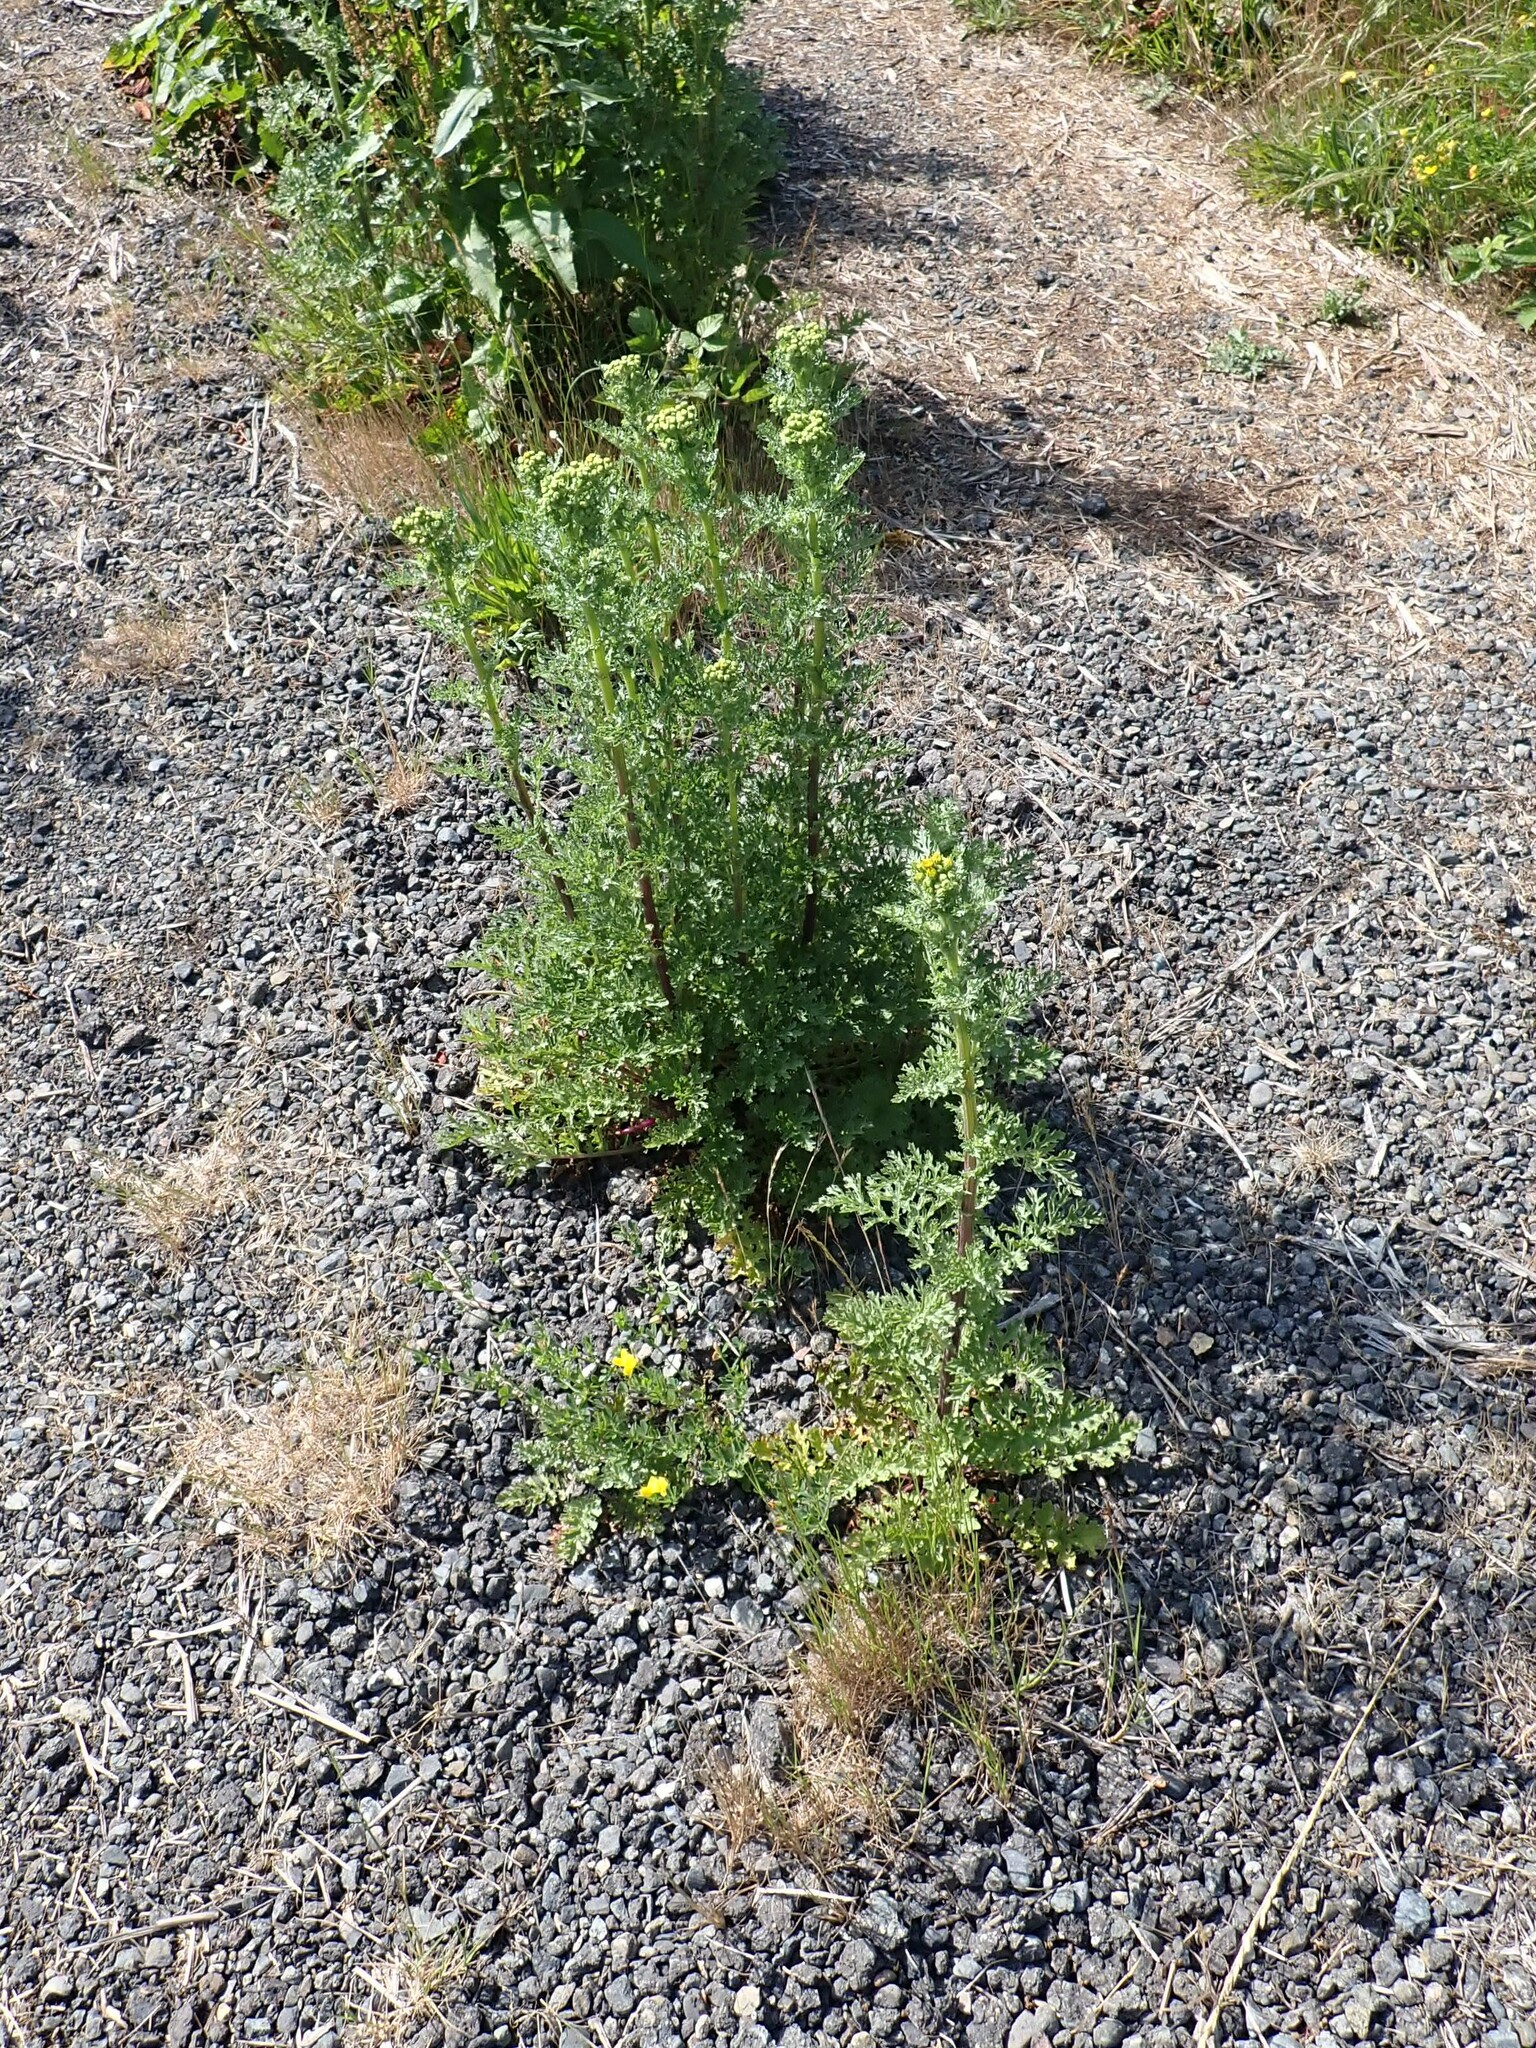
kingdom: Plantae
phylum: Tracheophyta
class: Magnoliopsida
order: Asterales
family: Asteraceae
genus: Jacobaea
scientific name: Jacobaea vulgaris
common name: Stinking willie
